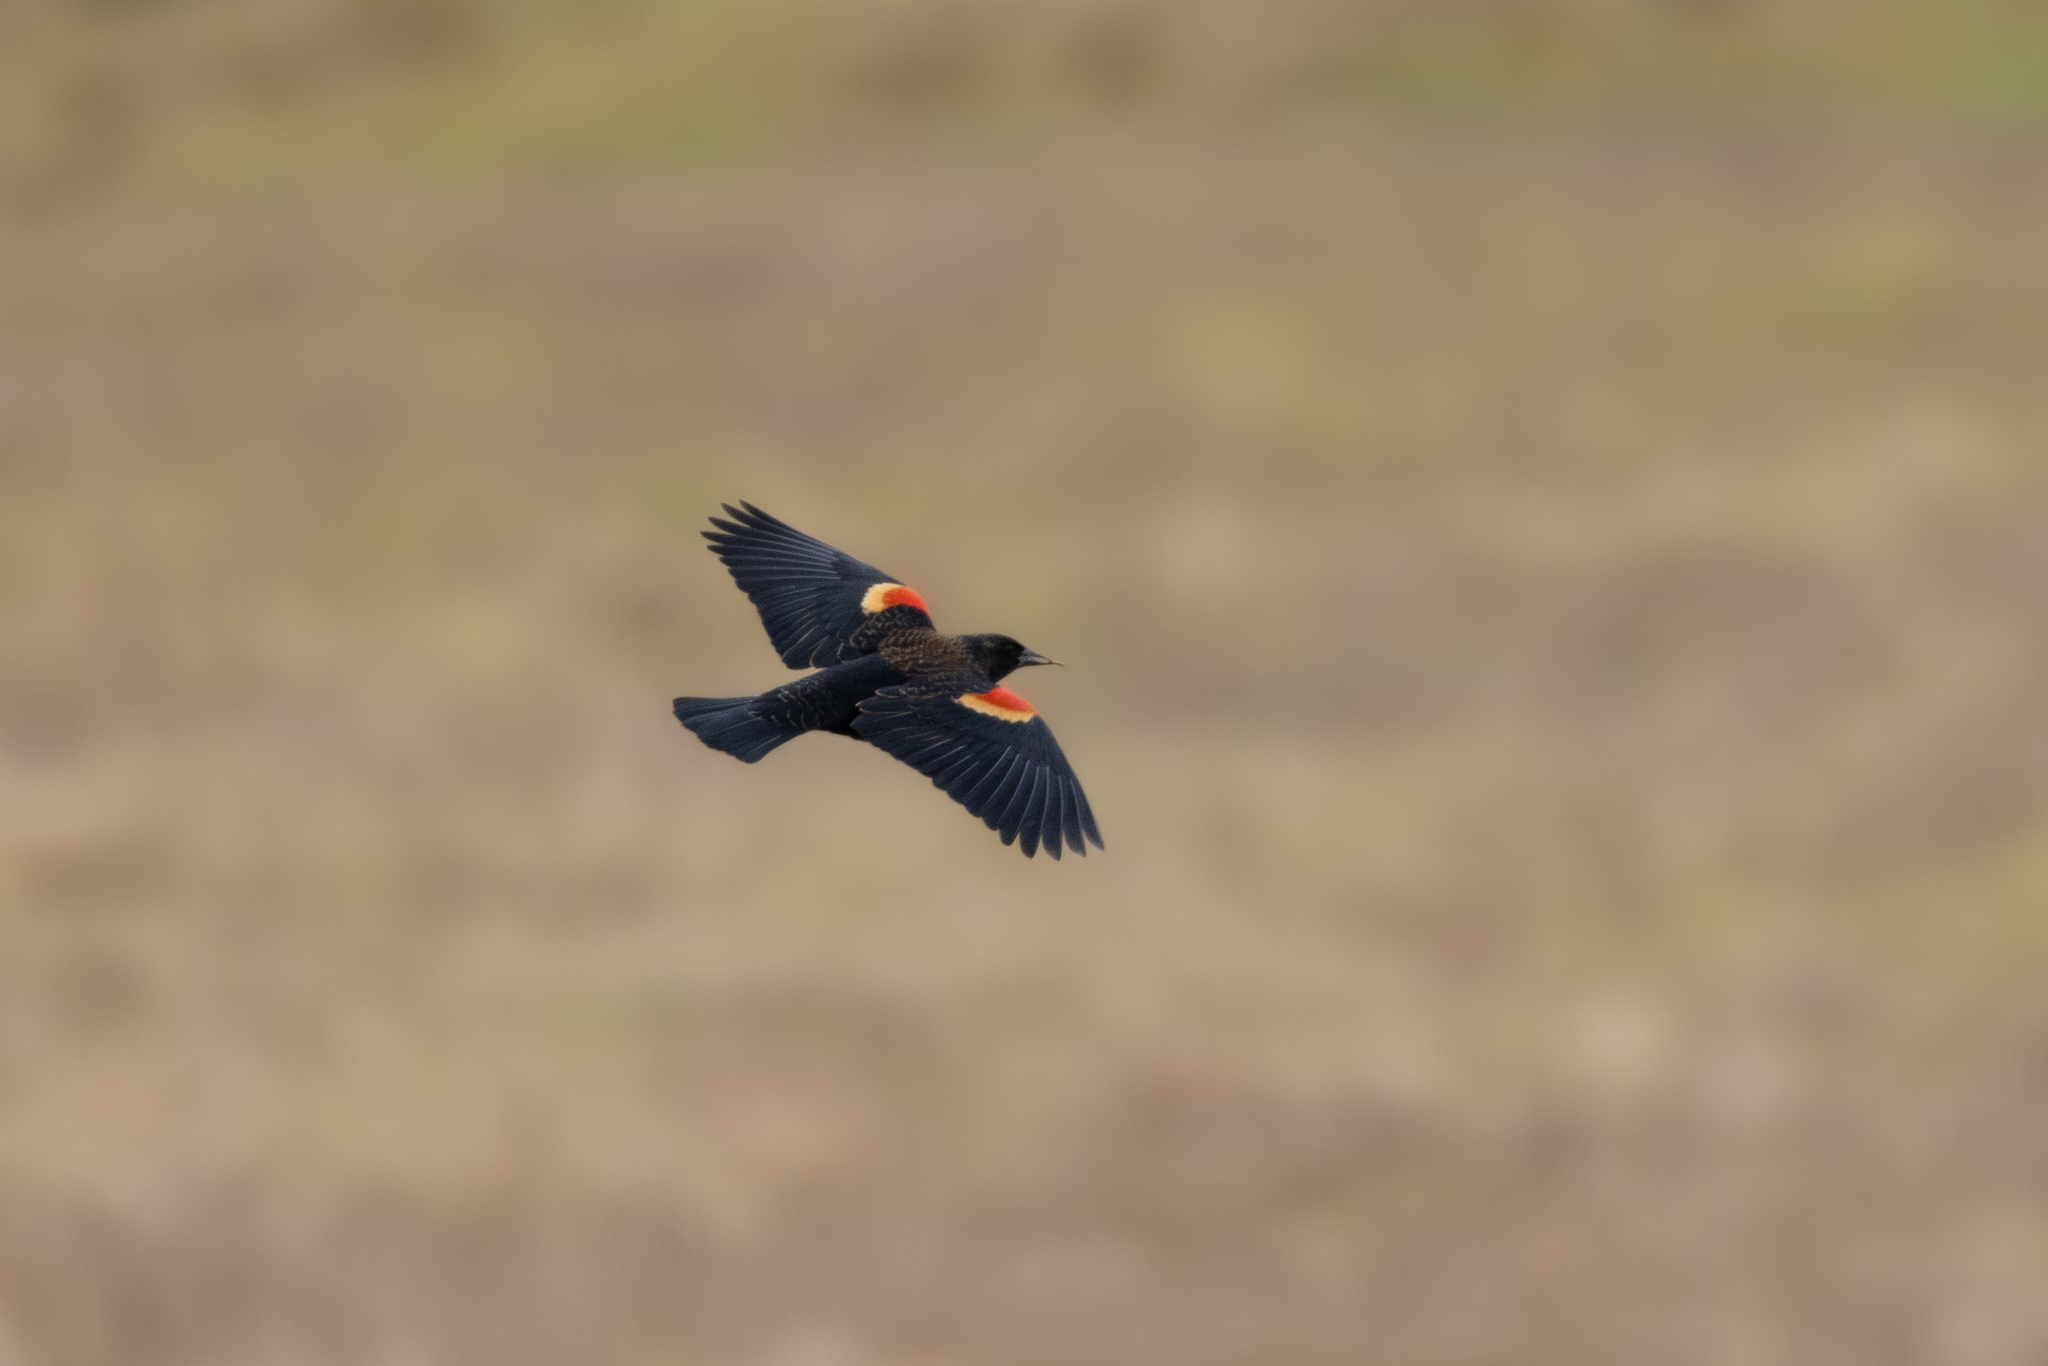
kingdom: Animalia
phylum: Chordata
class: Aves
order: Passeriformes
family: Icteridae
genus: Agelaius
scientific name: Agelaius phoeniceus
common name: Red-winged blackbird
